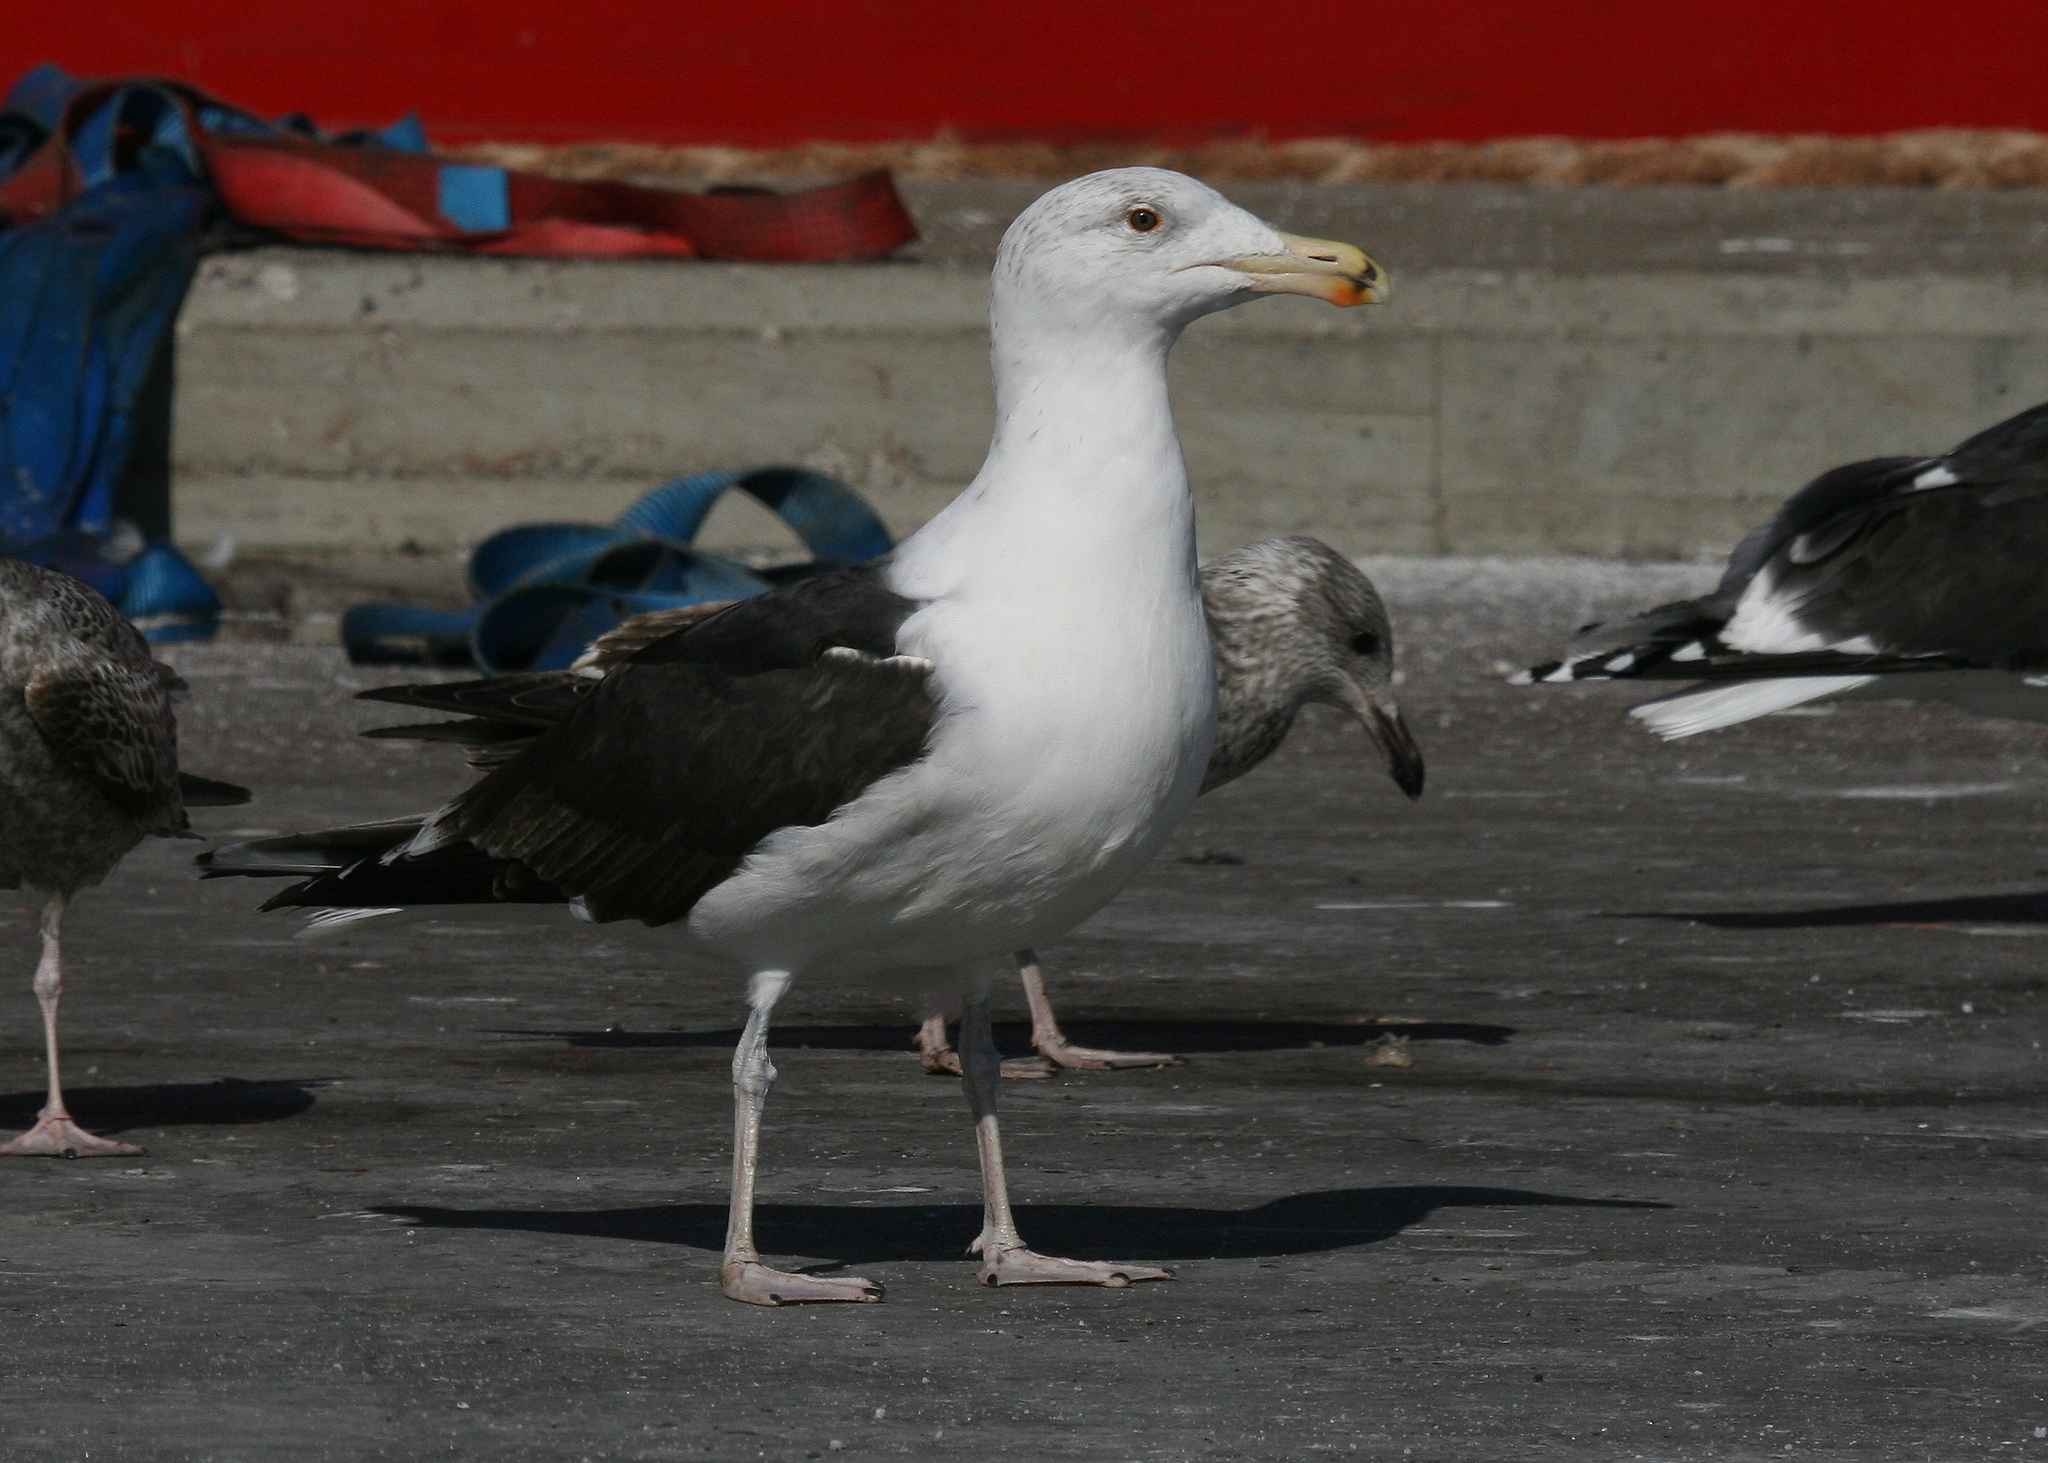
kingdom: Animalia
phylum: Chordata
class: Aves
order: Charadriiformes
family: Laridae
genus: Larus
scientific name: Larus marinus
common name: Great black-backed gull
